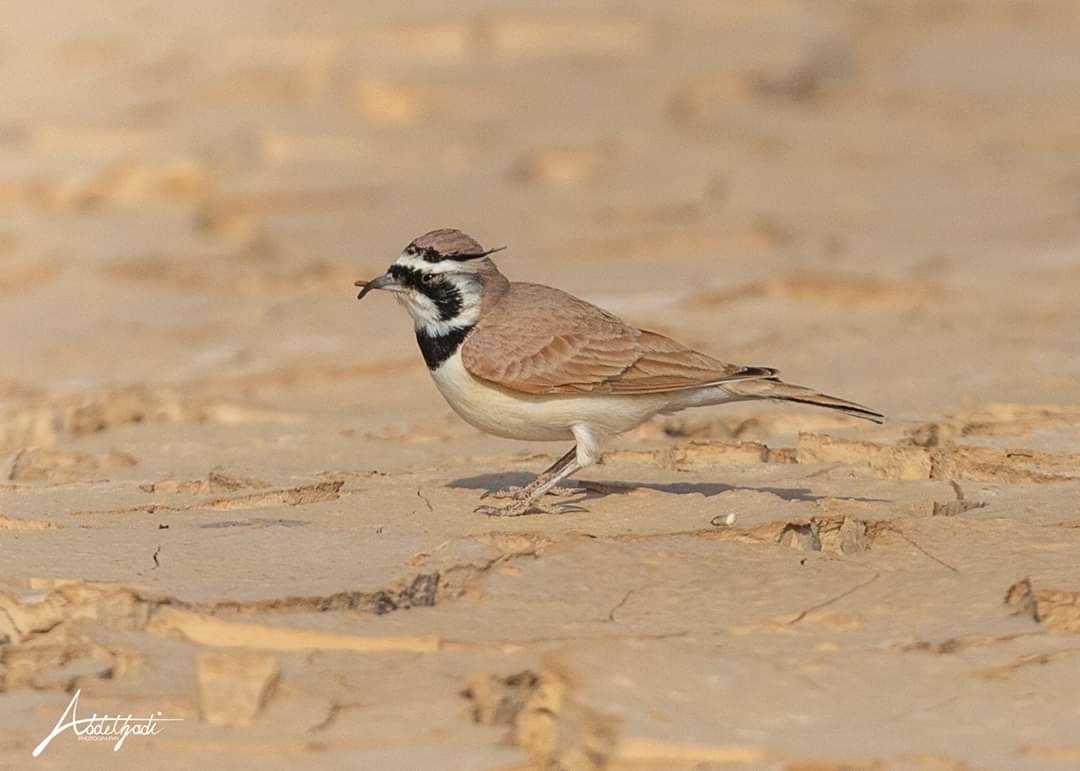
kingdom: Animalia
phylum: Chordata
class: Aves
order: Passeriformes
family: Alaudidae
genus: Eremophila
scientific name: Eremophila bilopha
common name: Temminck's lark
